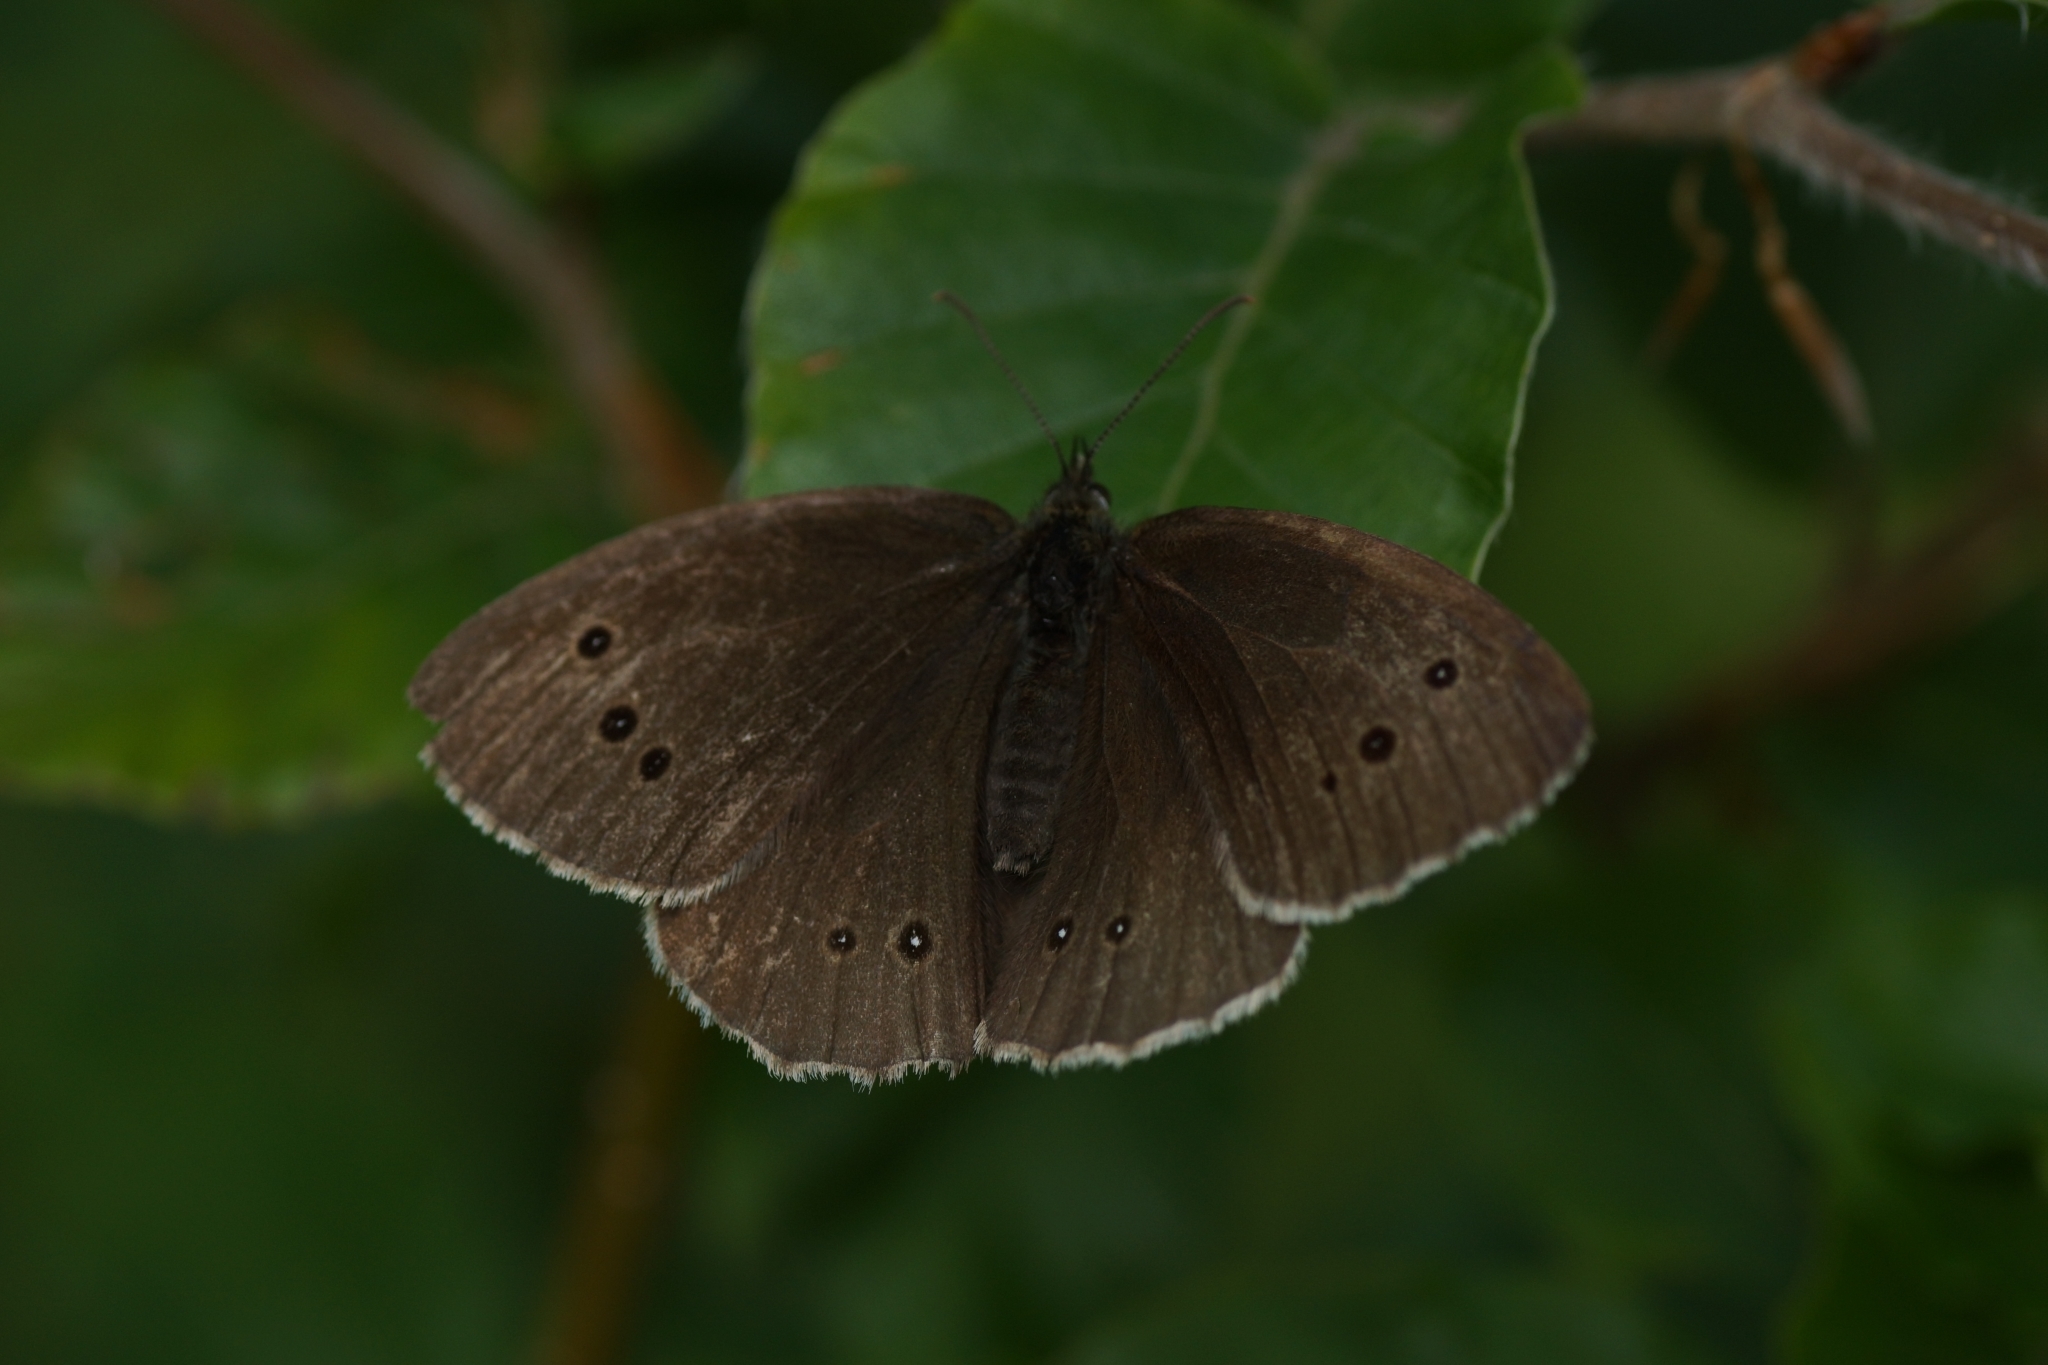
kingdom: Animalia
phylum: Arthropoda
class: Insecta
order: Lepidoptera
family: Nymphalidae
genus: Aphantopus
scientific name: Aphantopus hyperantus
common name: Ringlet
